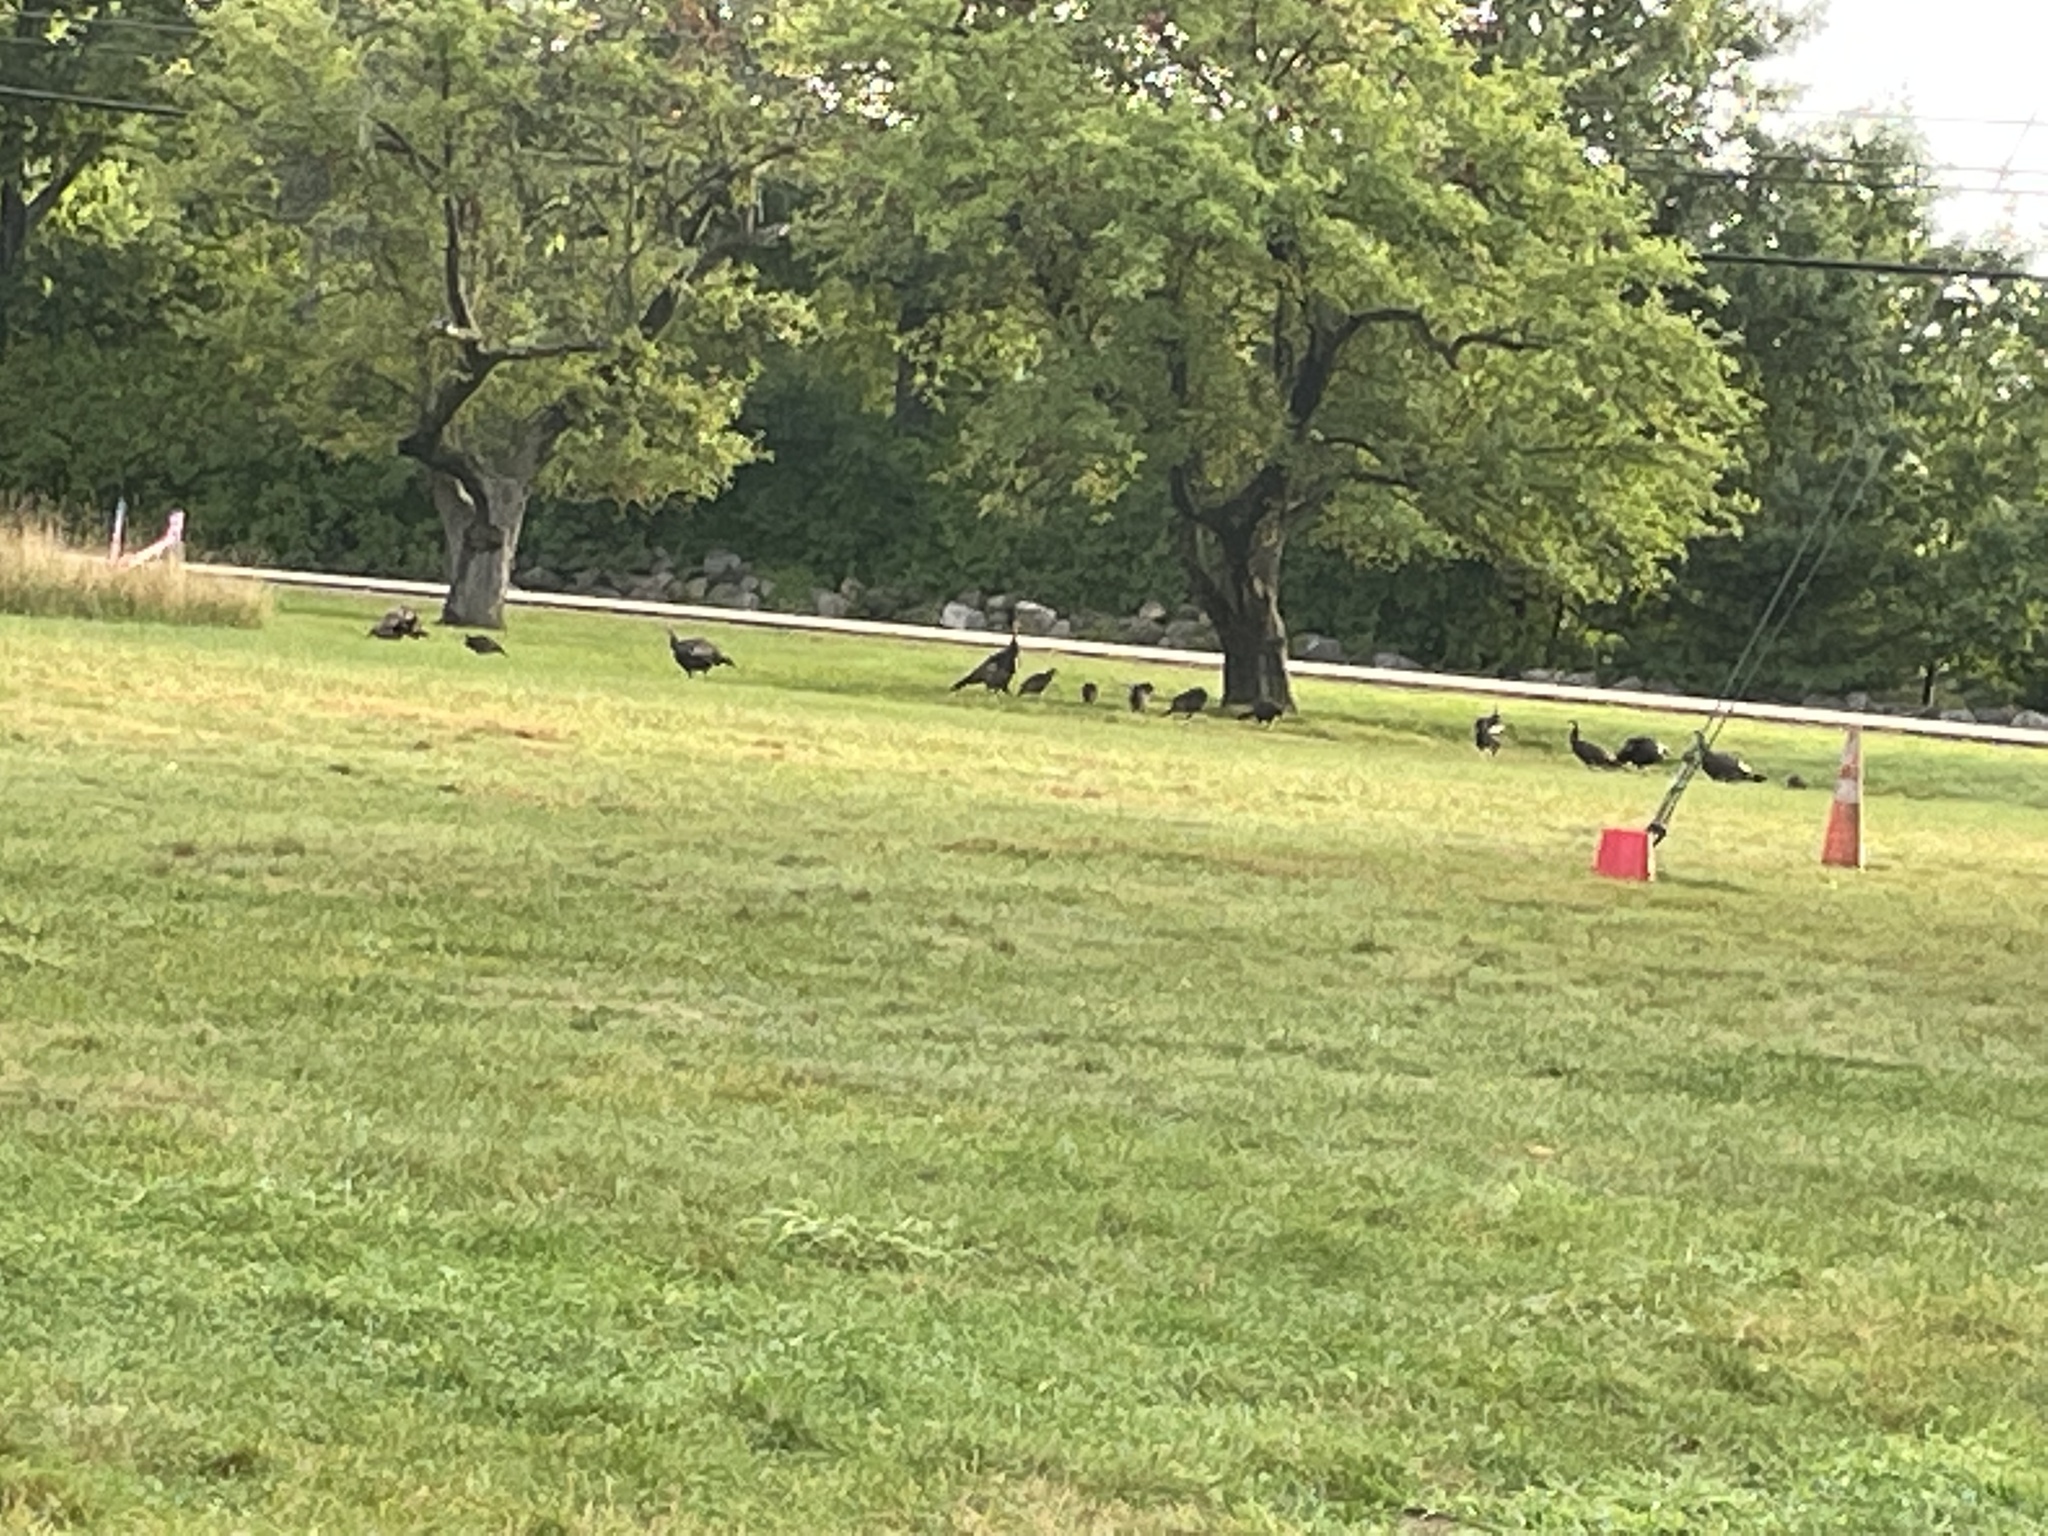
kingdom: Animalia
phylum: Chordata
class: Aves
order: Galliformes
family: Phasianidae
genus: Meleagris
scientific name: Meleagris gallopavo
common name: Wild turkey
